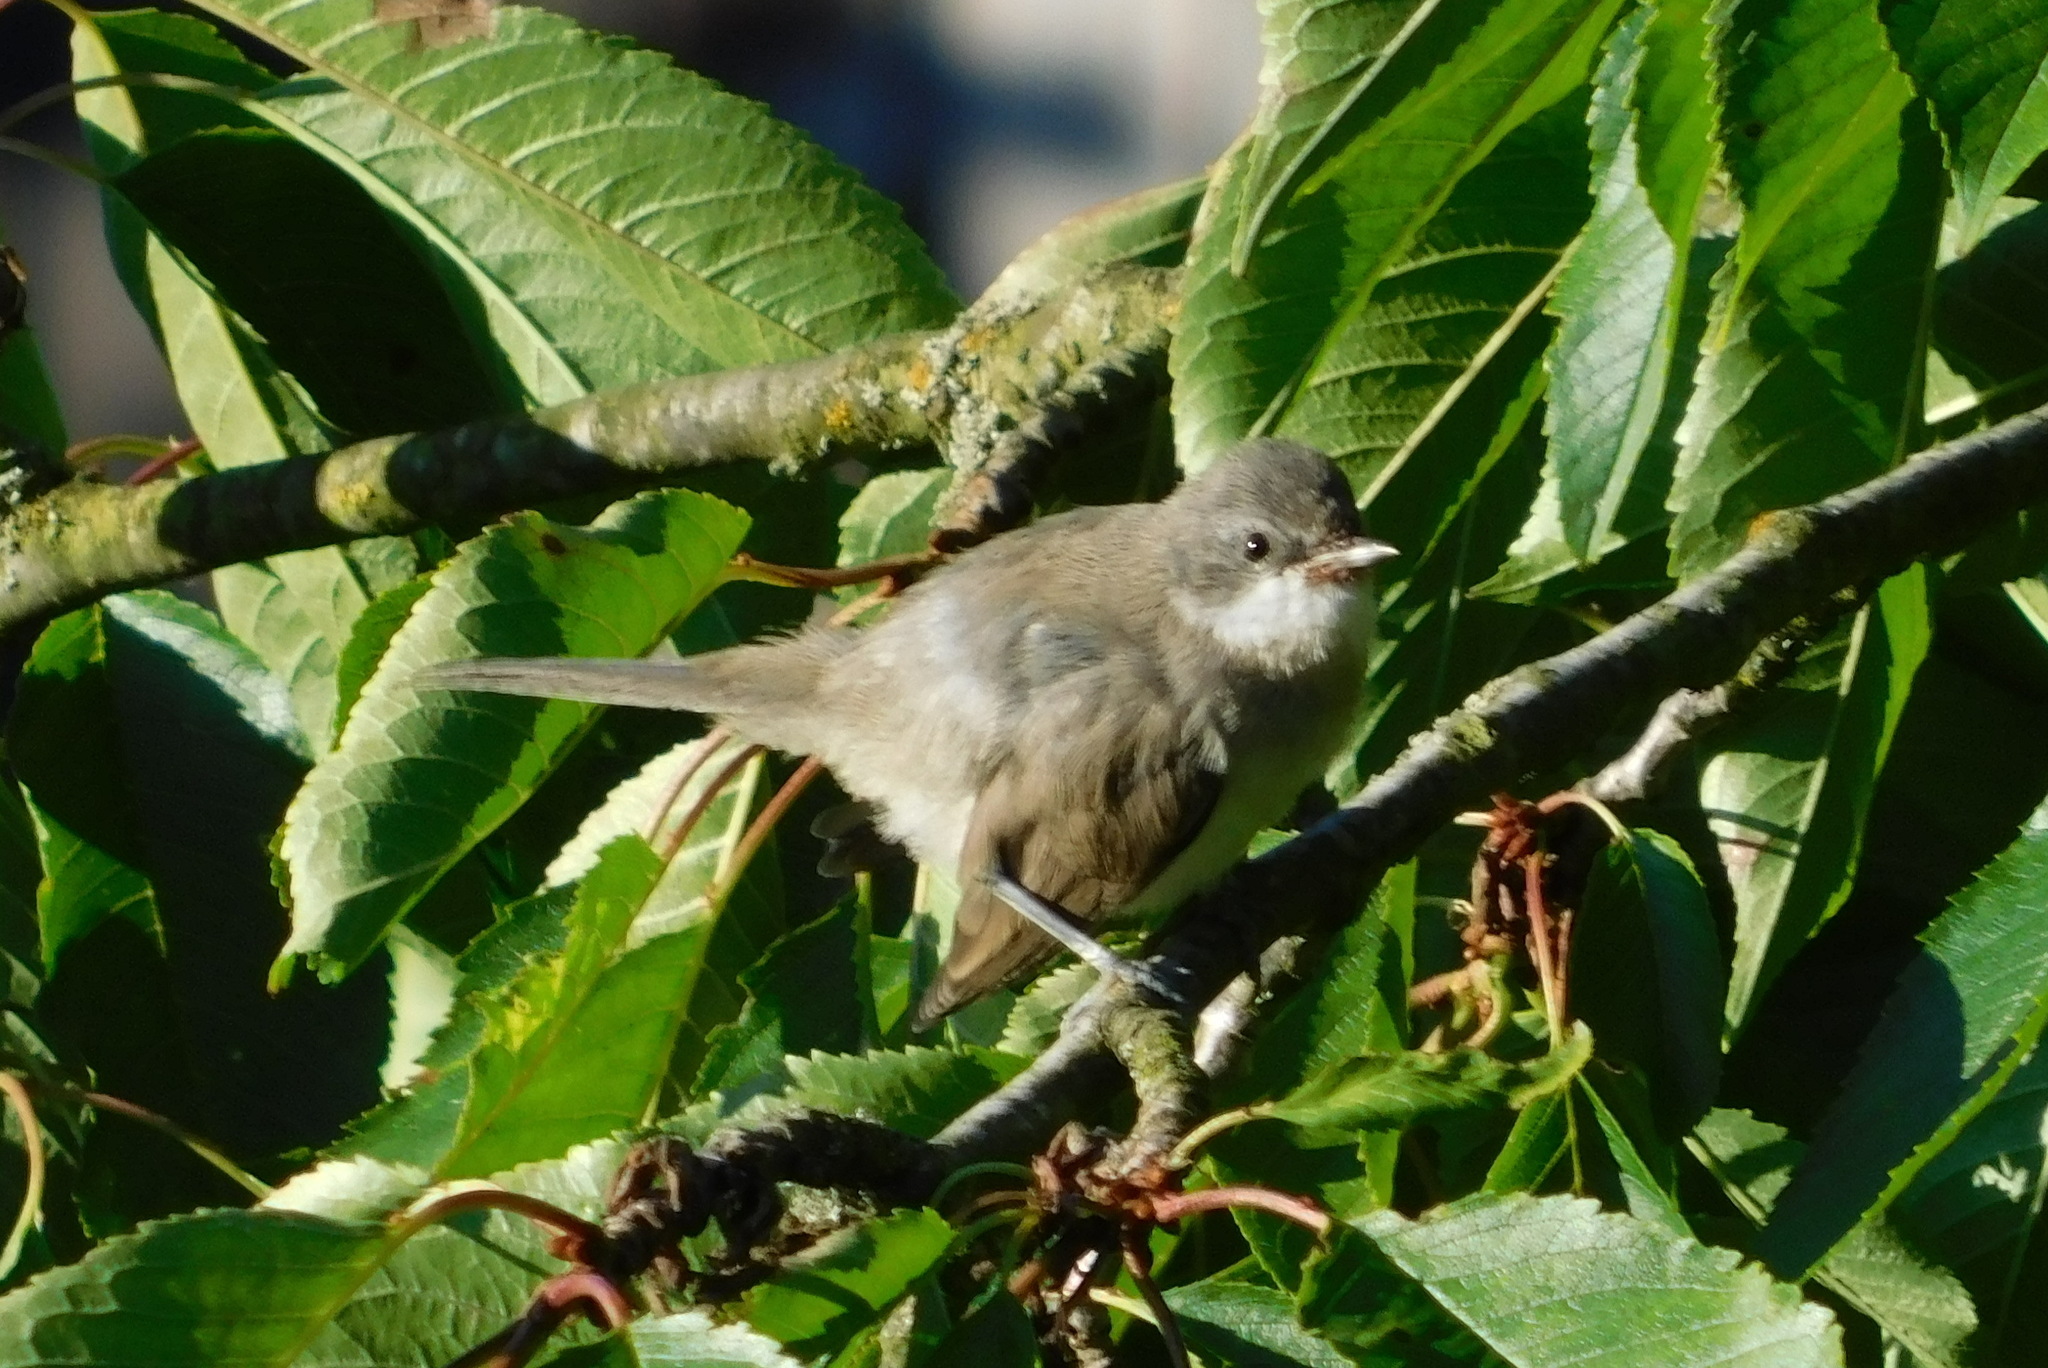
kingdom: Animalia
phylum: Chordata
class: Aves
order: Passeriformes
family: Sylviidae
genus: Sylvia
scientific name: Sylvia curruca
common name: Lesser whitethroat
